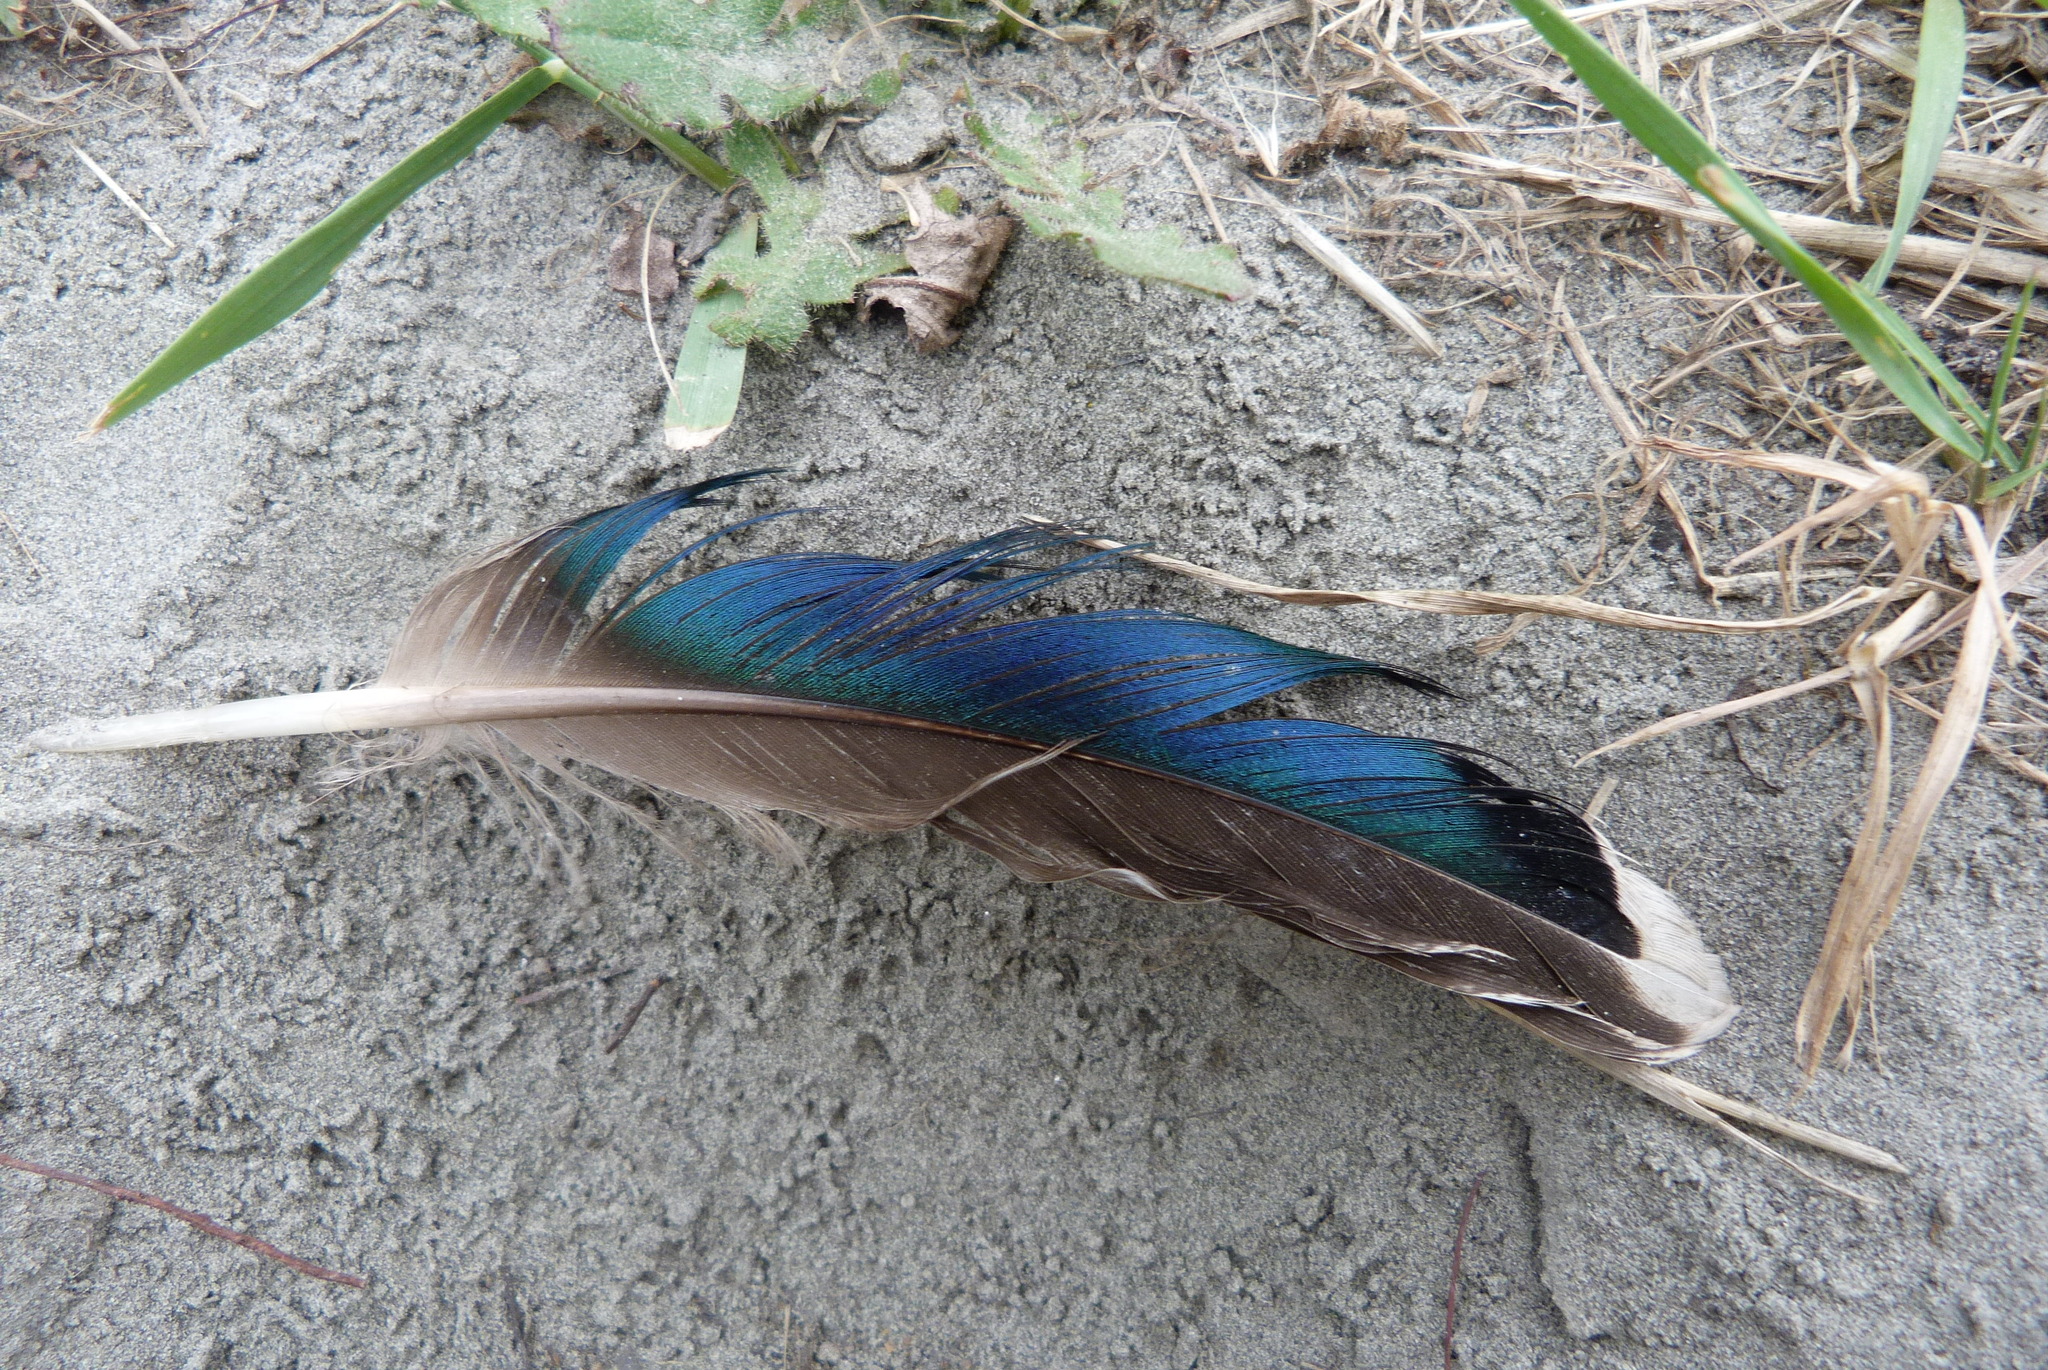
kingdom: Animalia
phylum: Chordata
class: Aves
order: Anseriformes
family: Anatidae
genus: Anas
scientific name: Anas platyrhynchos
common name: Mallard
